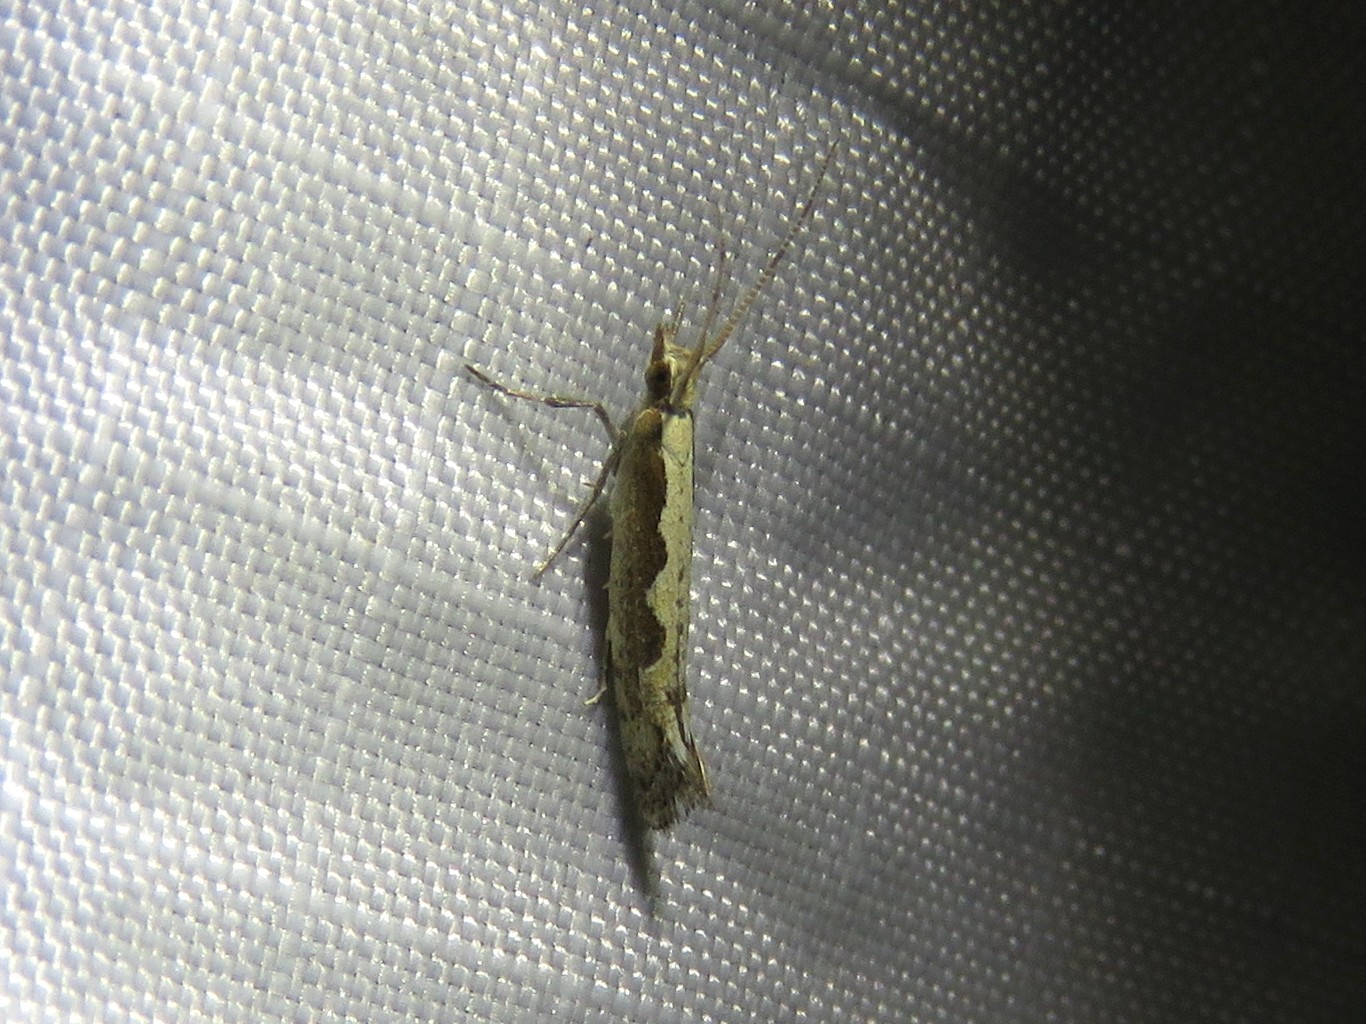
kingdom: Animalia
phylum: Arthropoda
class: Insecta
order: Lepidoptera
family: Plutellidae
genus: Plutella
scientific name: Plutella xylostella
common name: Diamond-back moth
